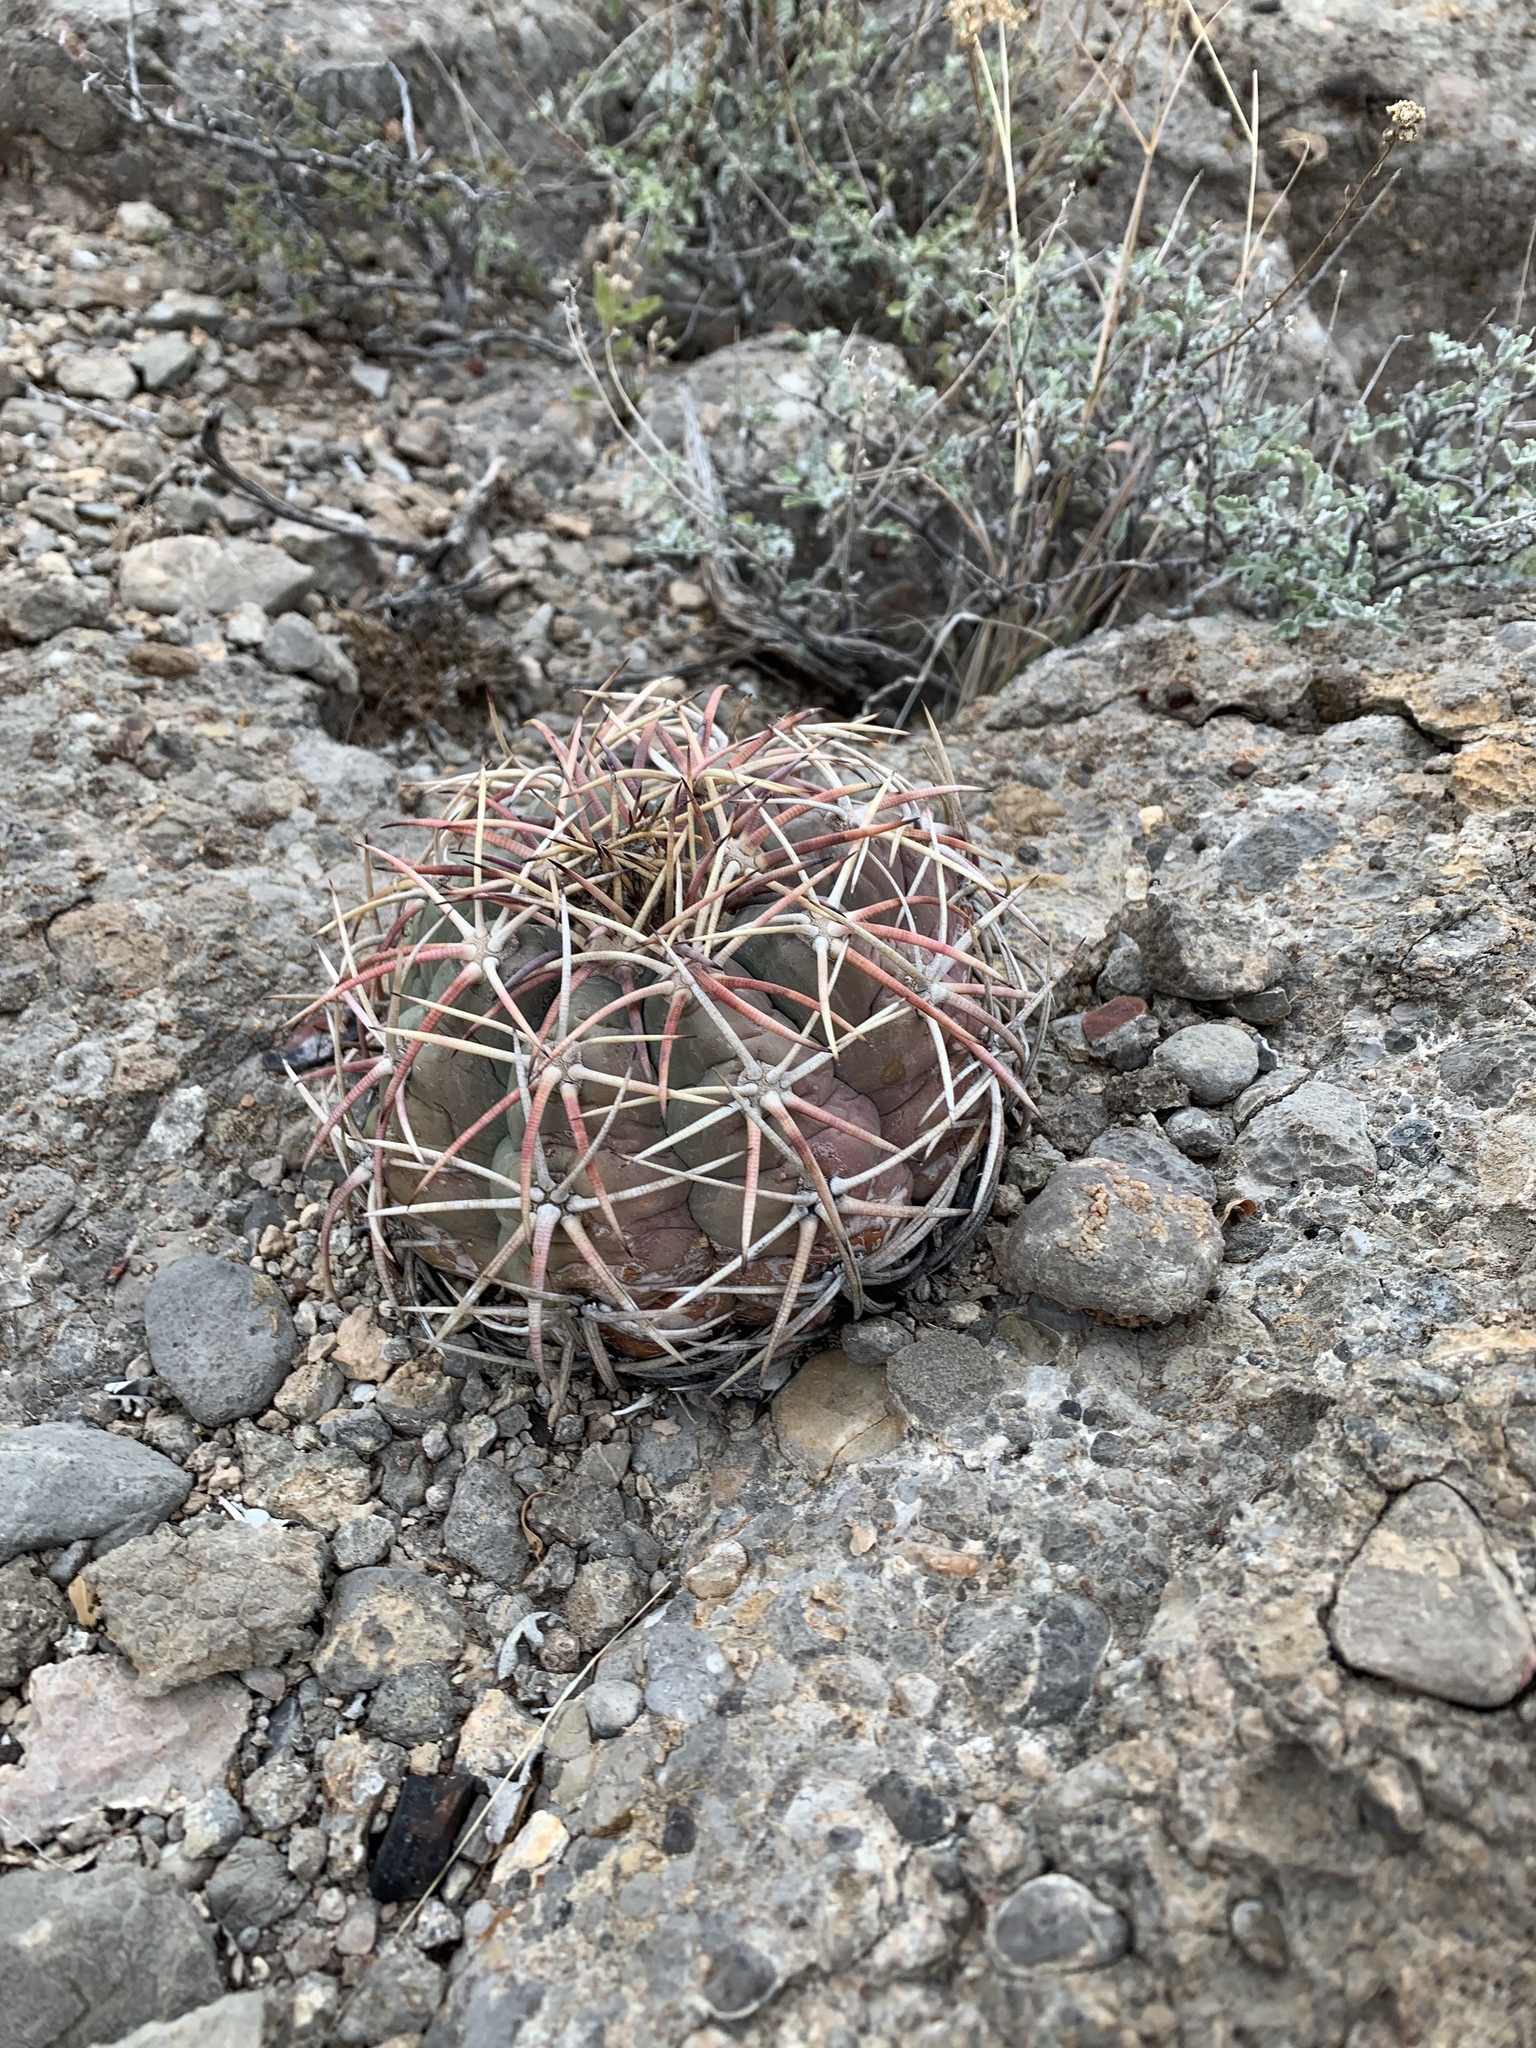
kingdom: Plantae
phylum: Tracheophyta
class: Magnoliopsida
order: Caryophyllales
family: Cactaceae
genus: Echinocactus
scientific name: Echinocactus horizonthalonius
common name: Devilshead
